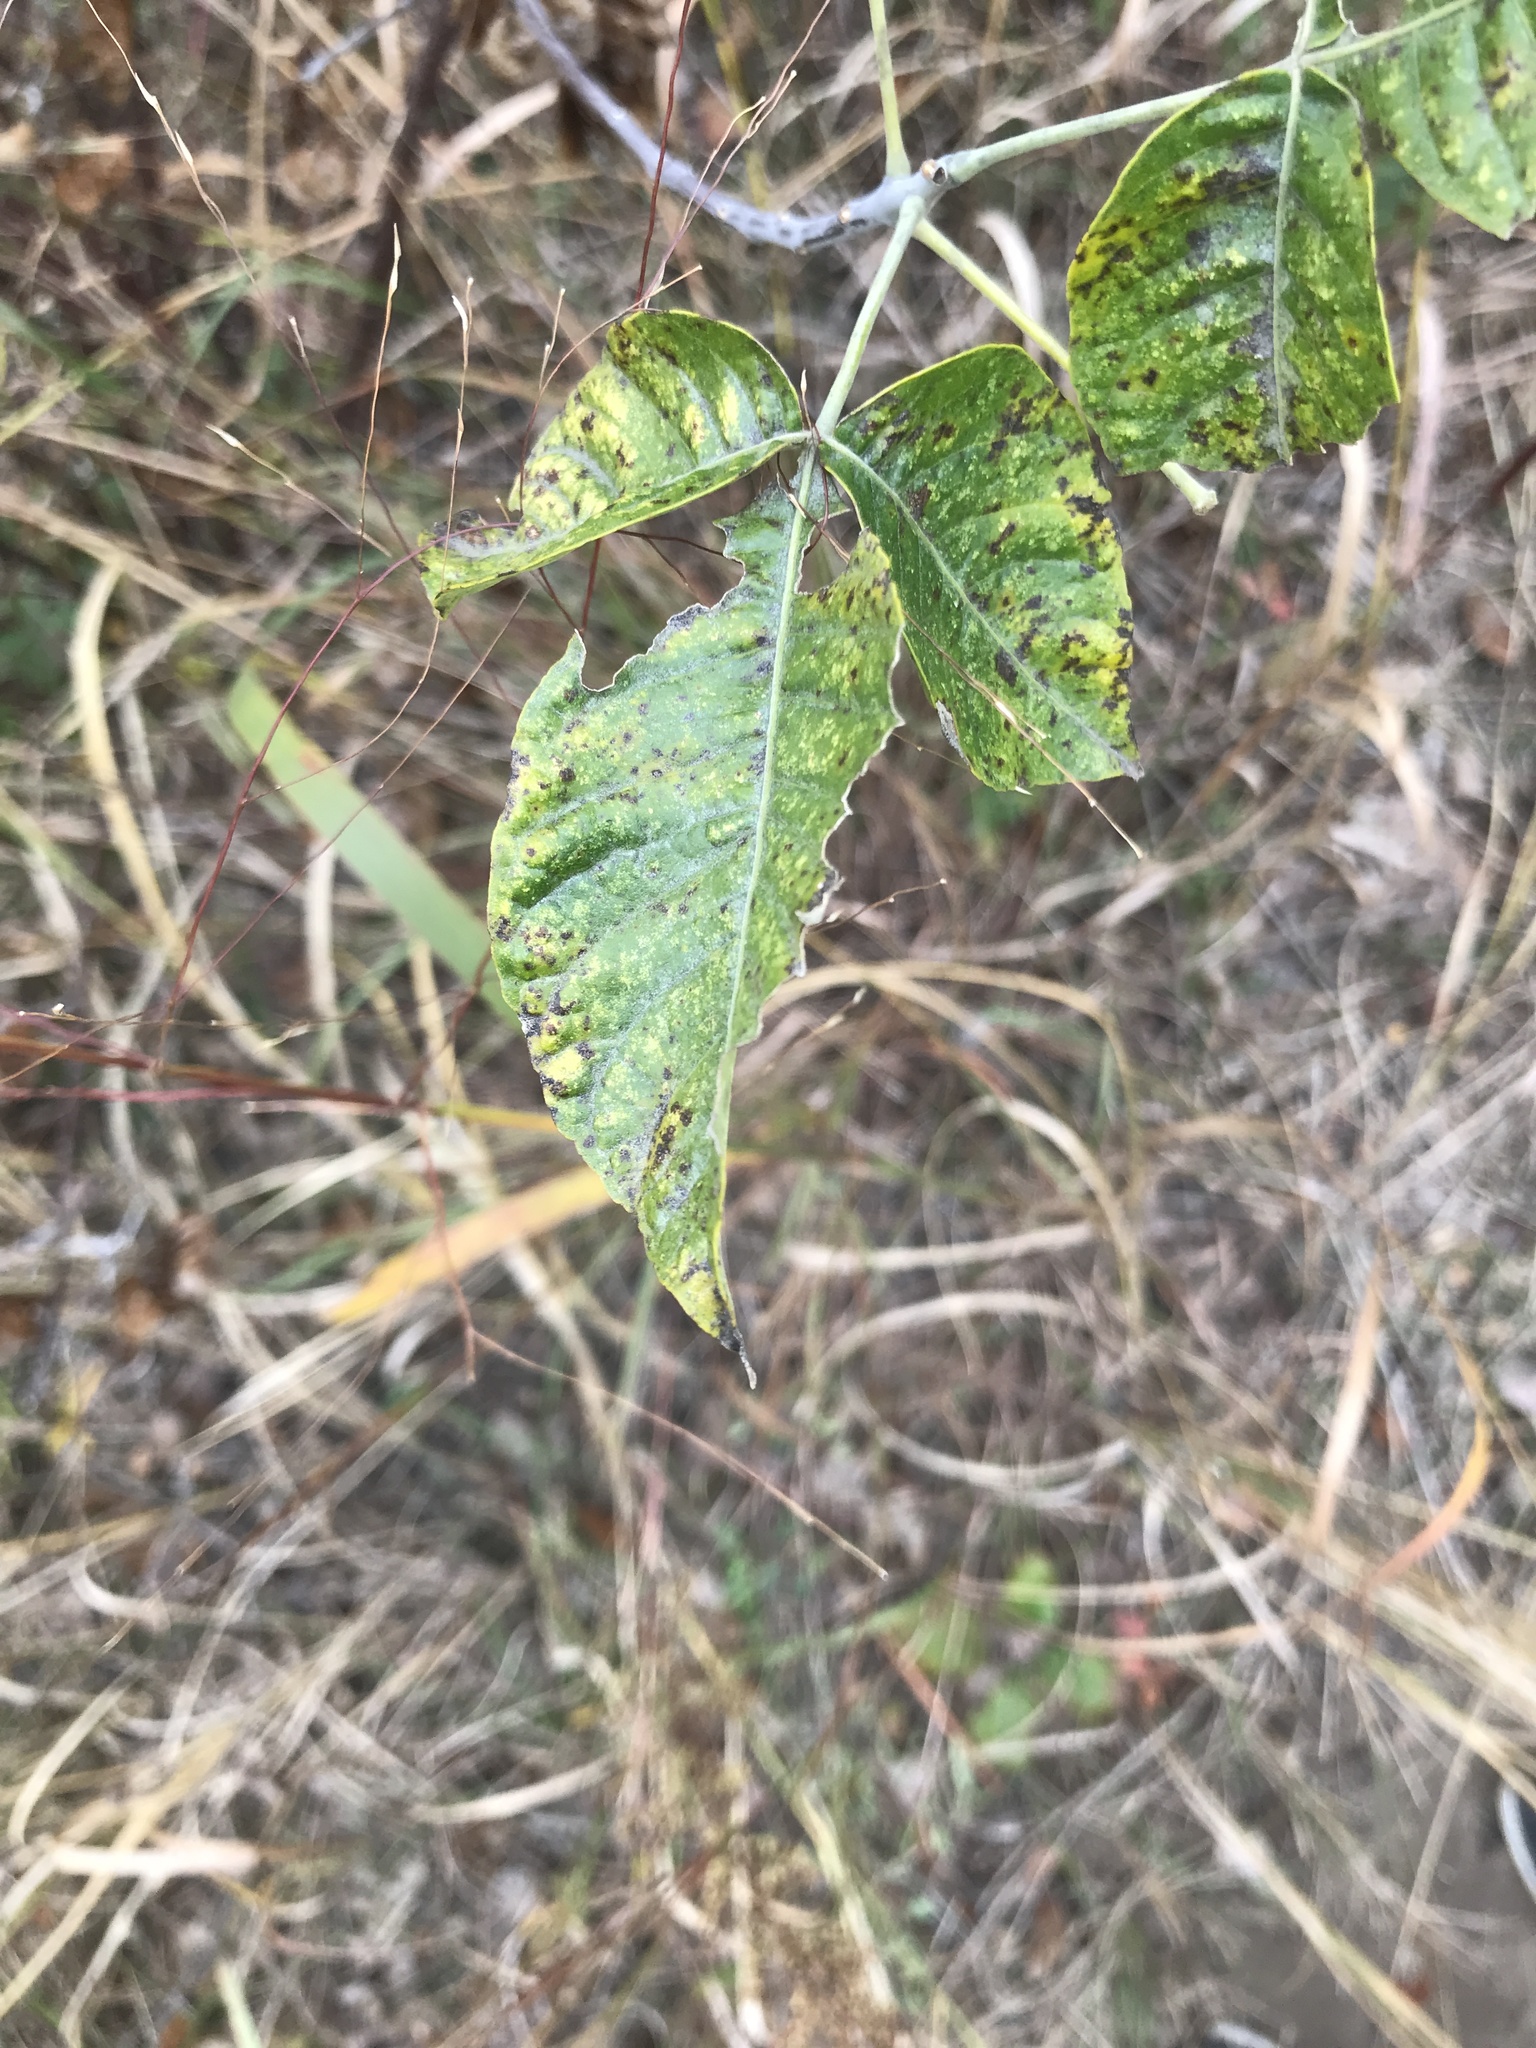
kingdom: Plantae
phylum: Tracheophyta
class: Magnoliopsida
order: Sapindales
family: Rutaceae
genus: Ptelea
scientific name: Ptelea trifoliata
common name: Common hop-tree
